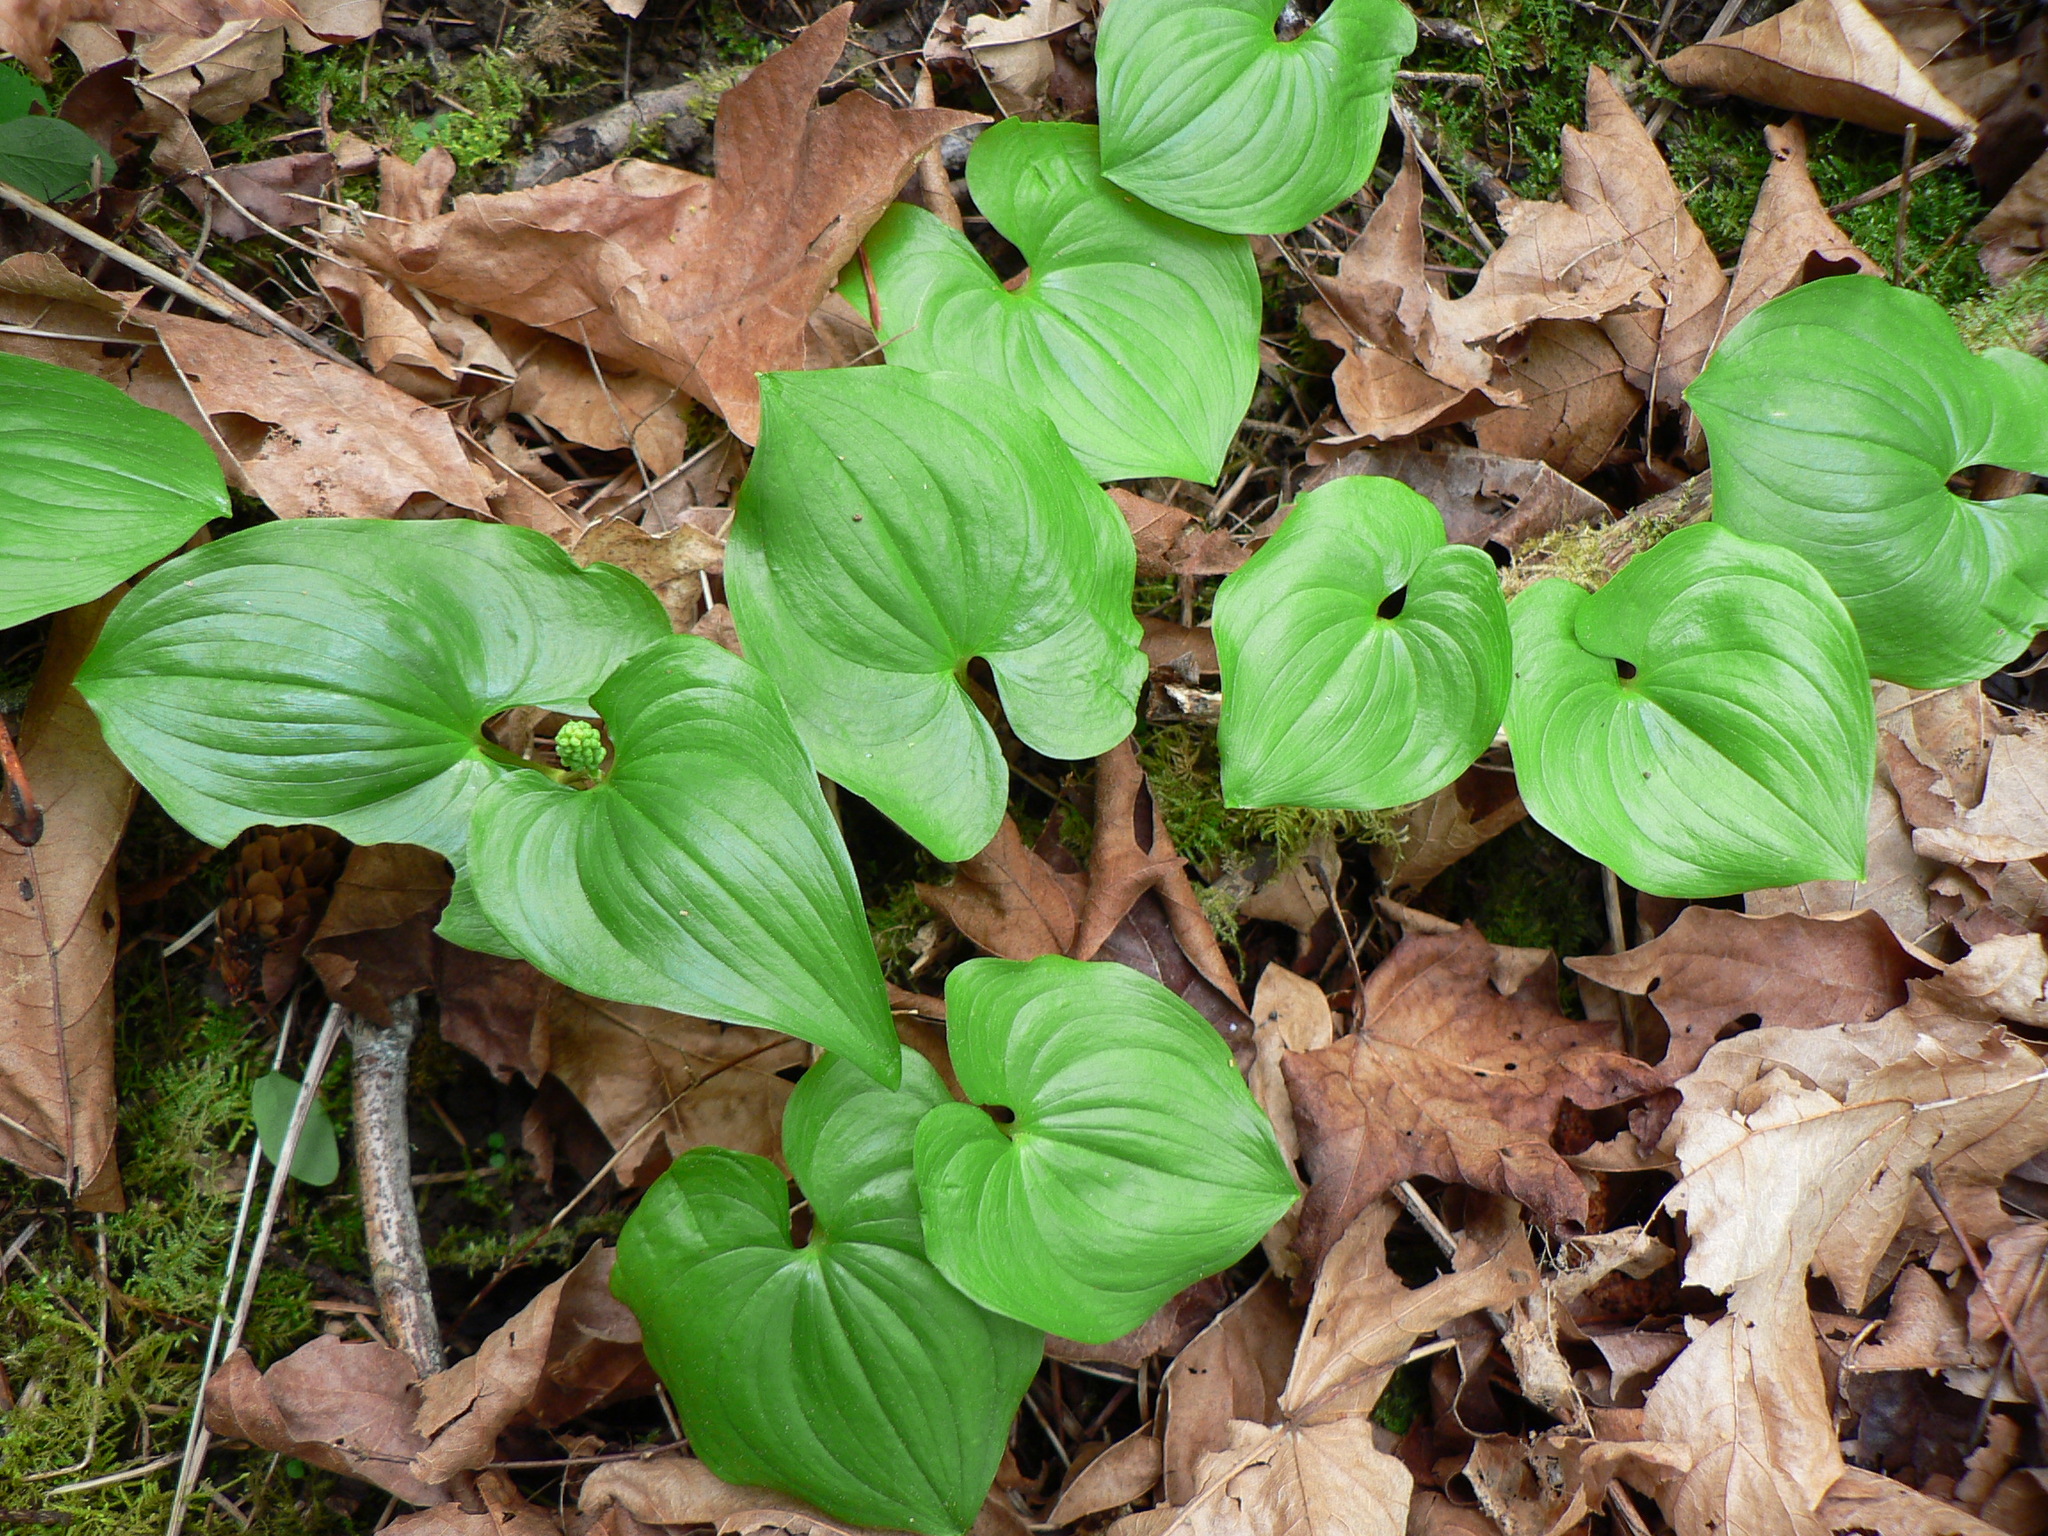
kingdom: Plantae
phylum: Tracheophyta
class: Liliopsida
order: Asparagales
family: Asparagaceae
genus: Maianthemum
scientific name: Maianthemum dilatatum
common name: False lily-of-the-valley
